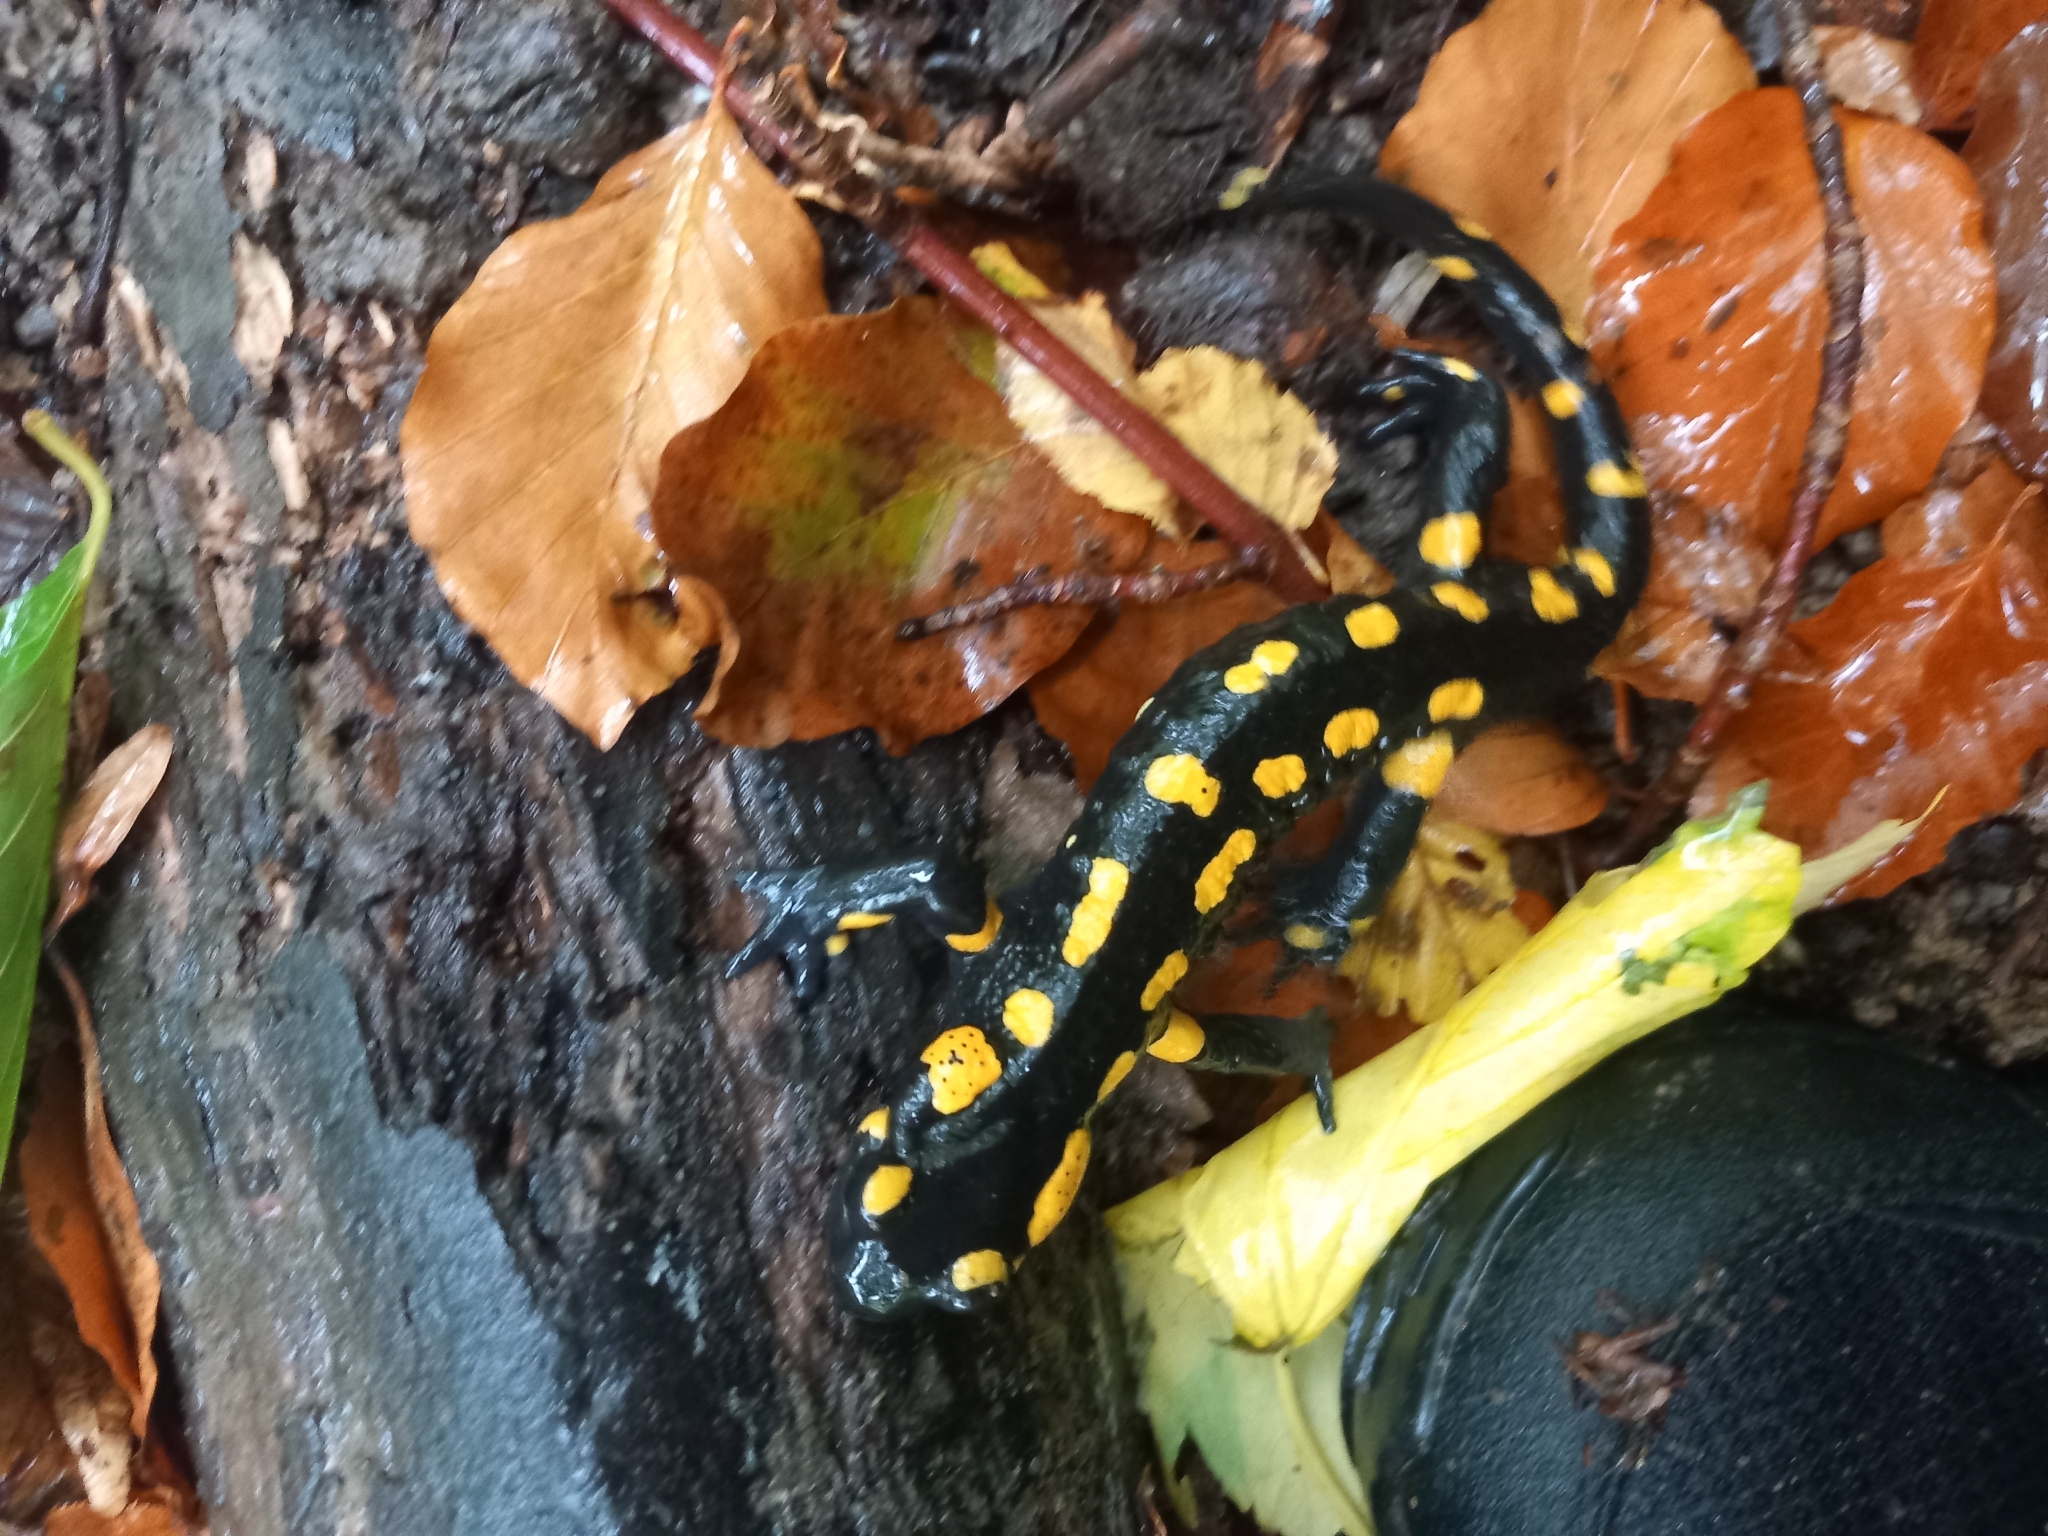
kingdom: Animalia
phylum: Chordata
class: Amphibia
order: Caudata
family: Salamandridae
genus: Salamandra
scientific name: Salamandra salamandra
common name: Fire salamander
